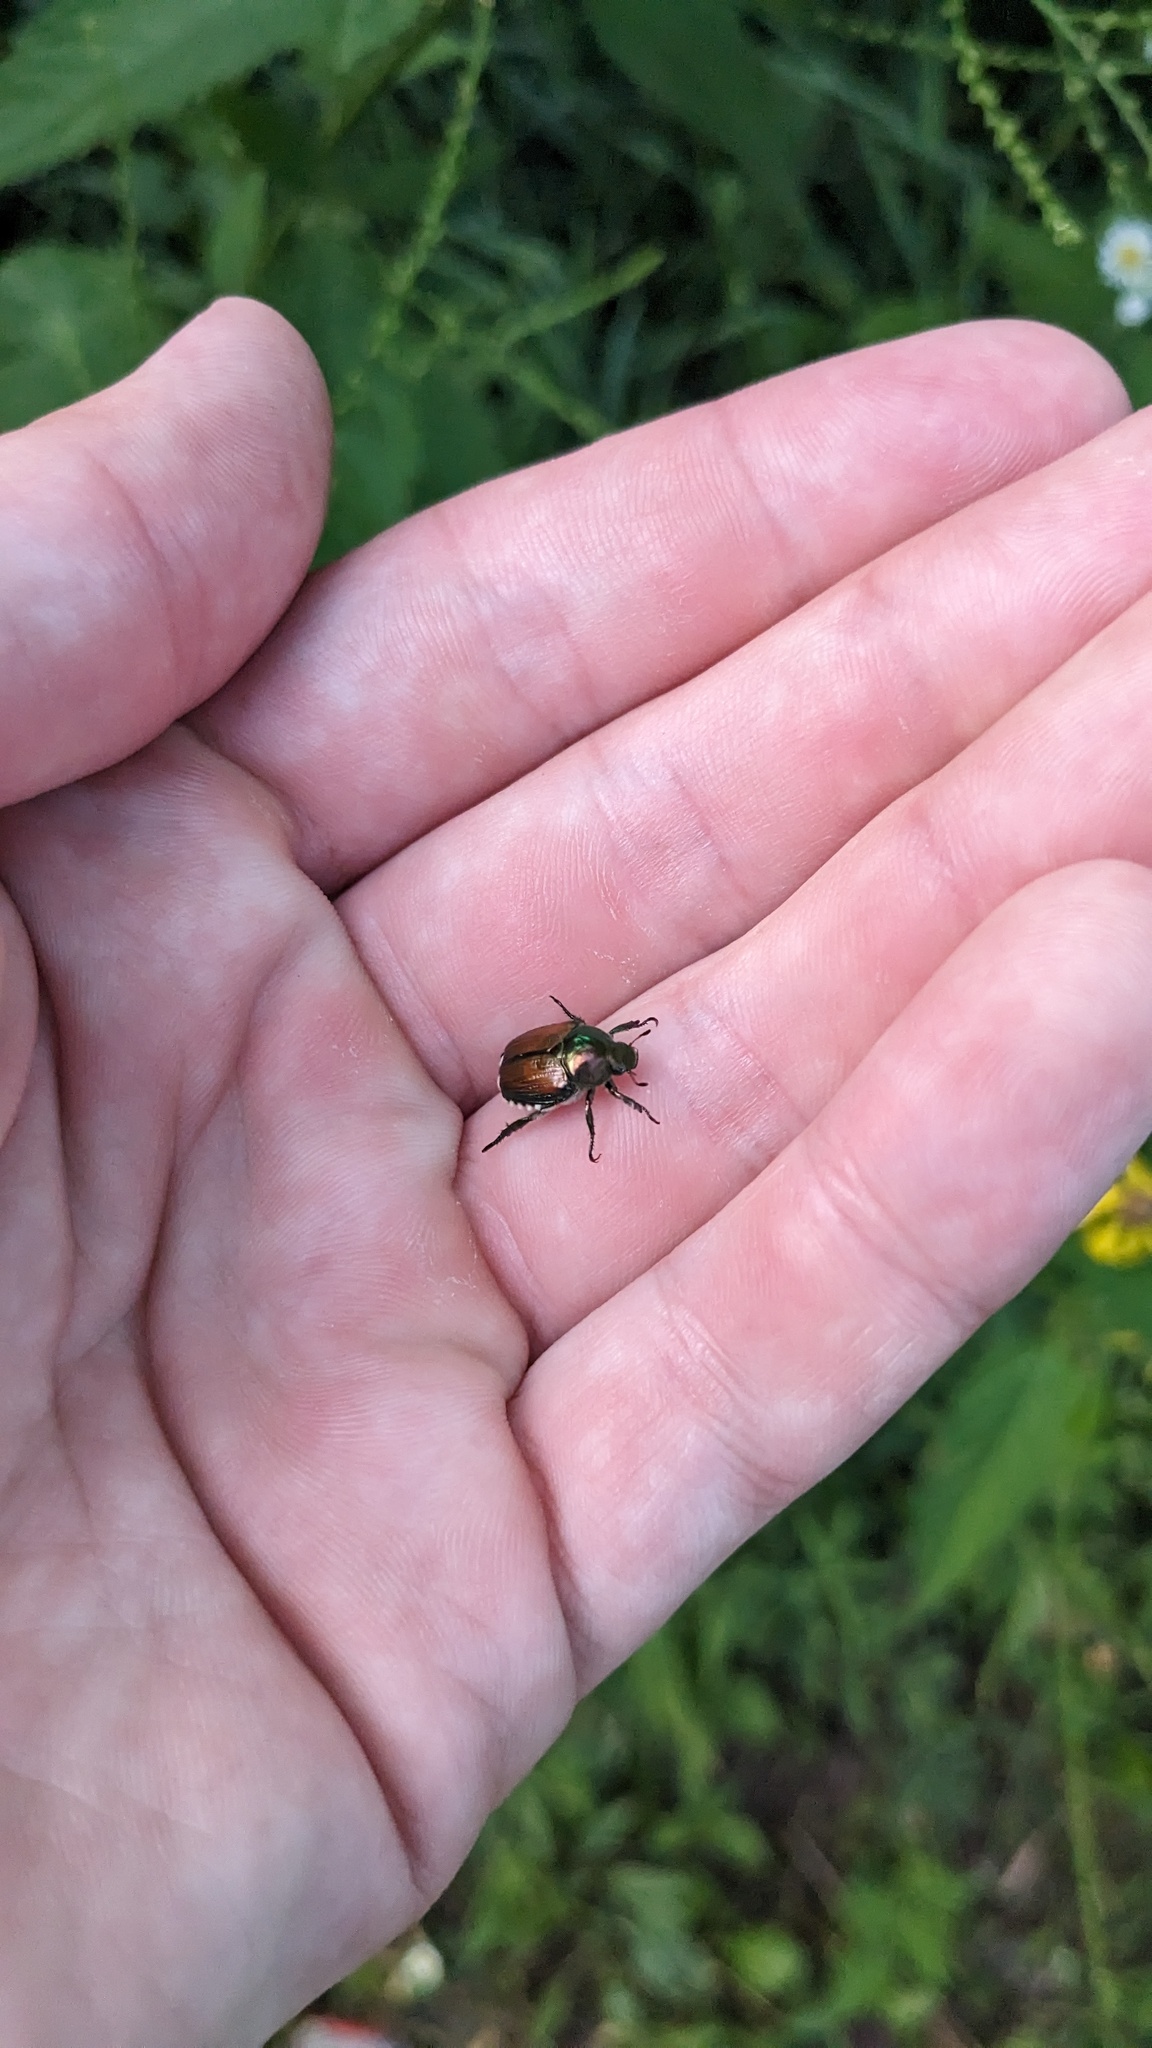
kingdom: Animalia
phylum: Arthropoda
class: Insecta
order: Coleoptera
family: Scarabaeidae
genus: Popillia
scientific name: Popillia japonica
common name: Japanese beetle
